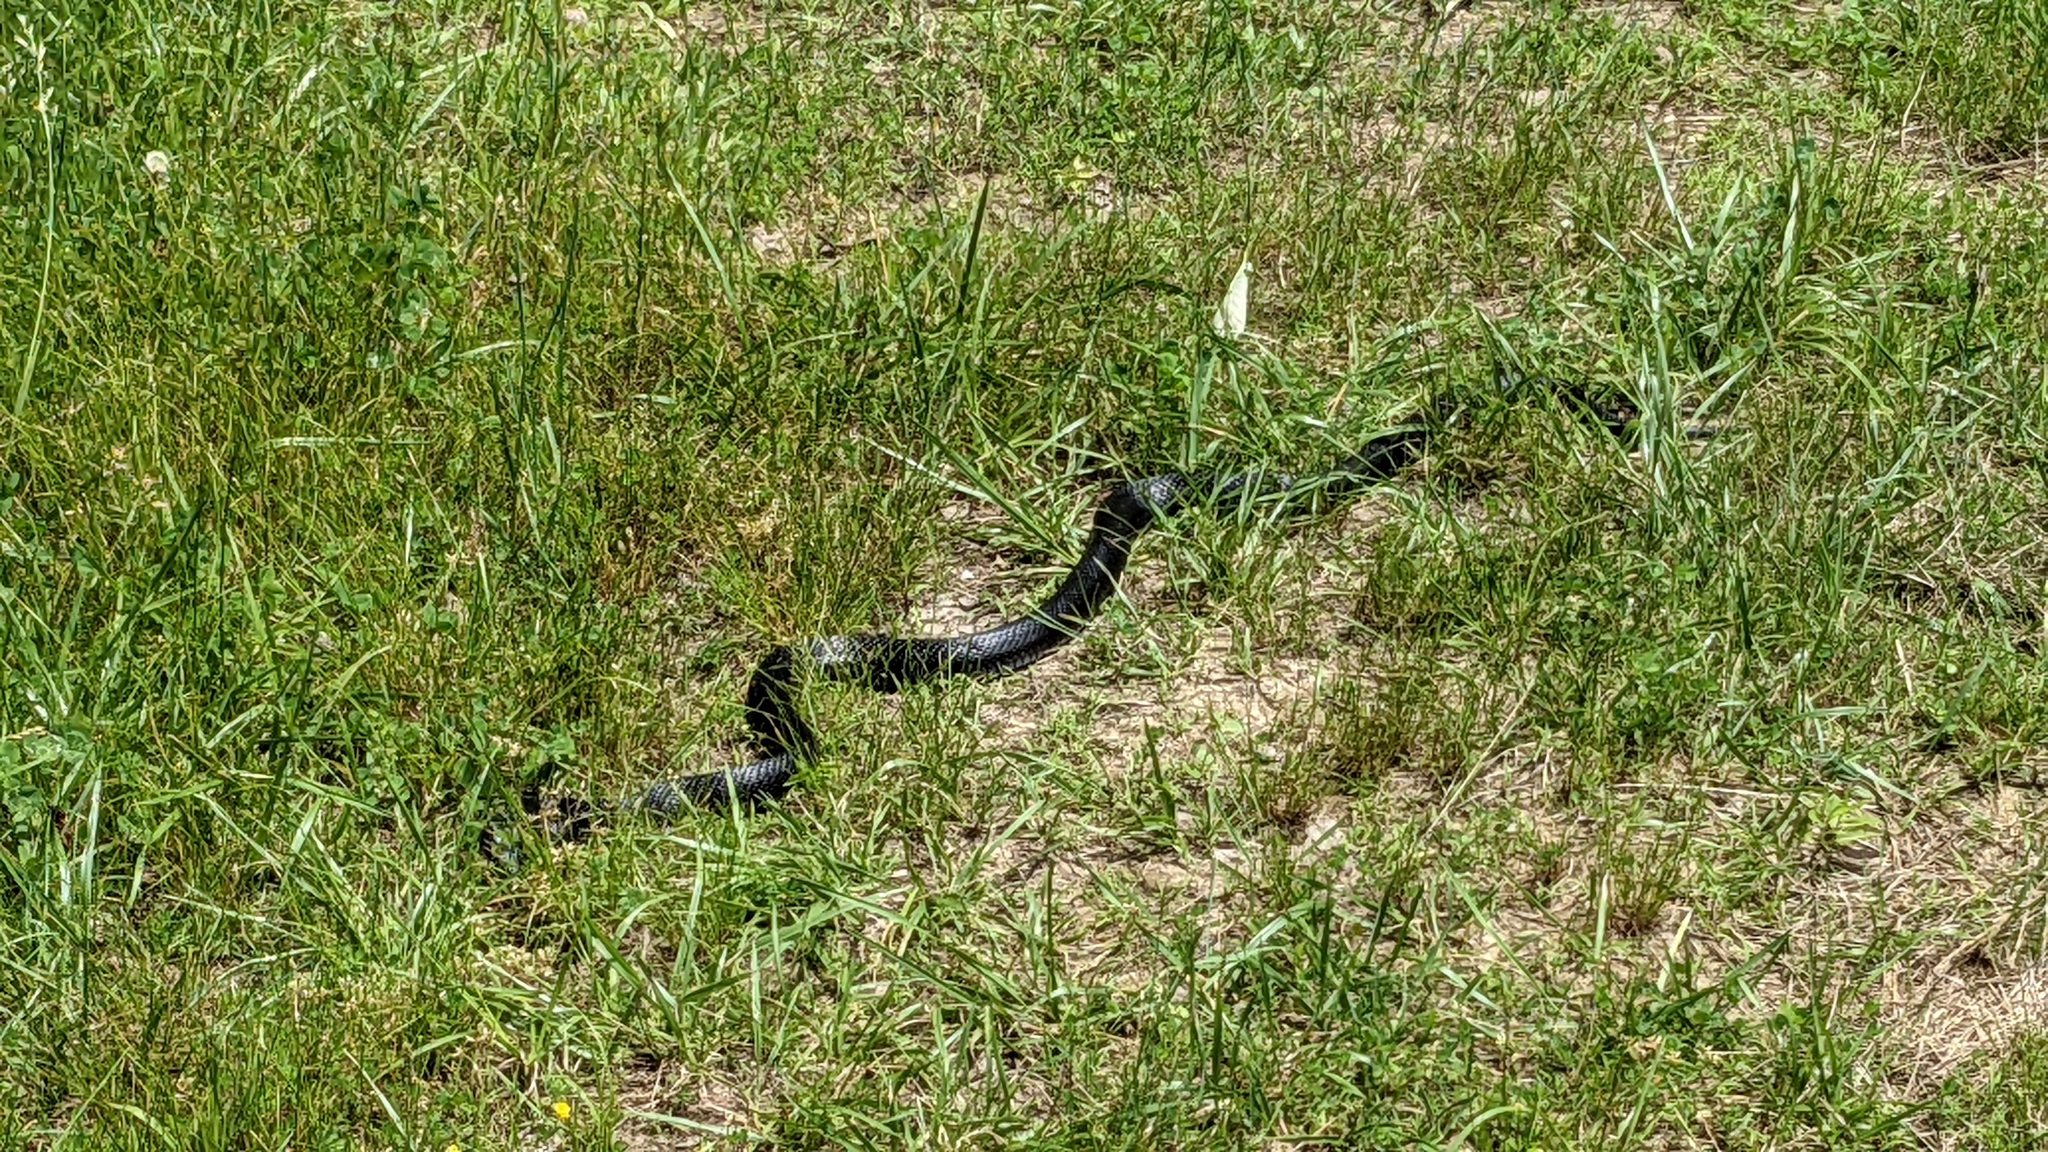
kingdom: Animalia
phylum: Chordata
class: Squamata
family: Colubridae
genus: Pantherophis
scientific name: Pantherophis obsoletus
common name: Black rat snake
